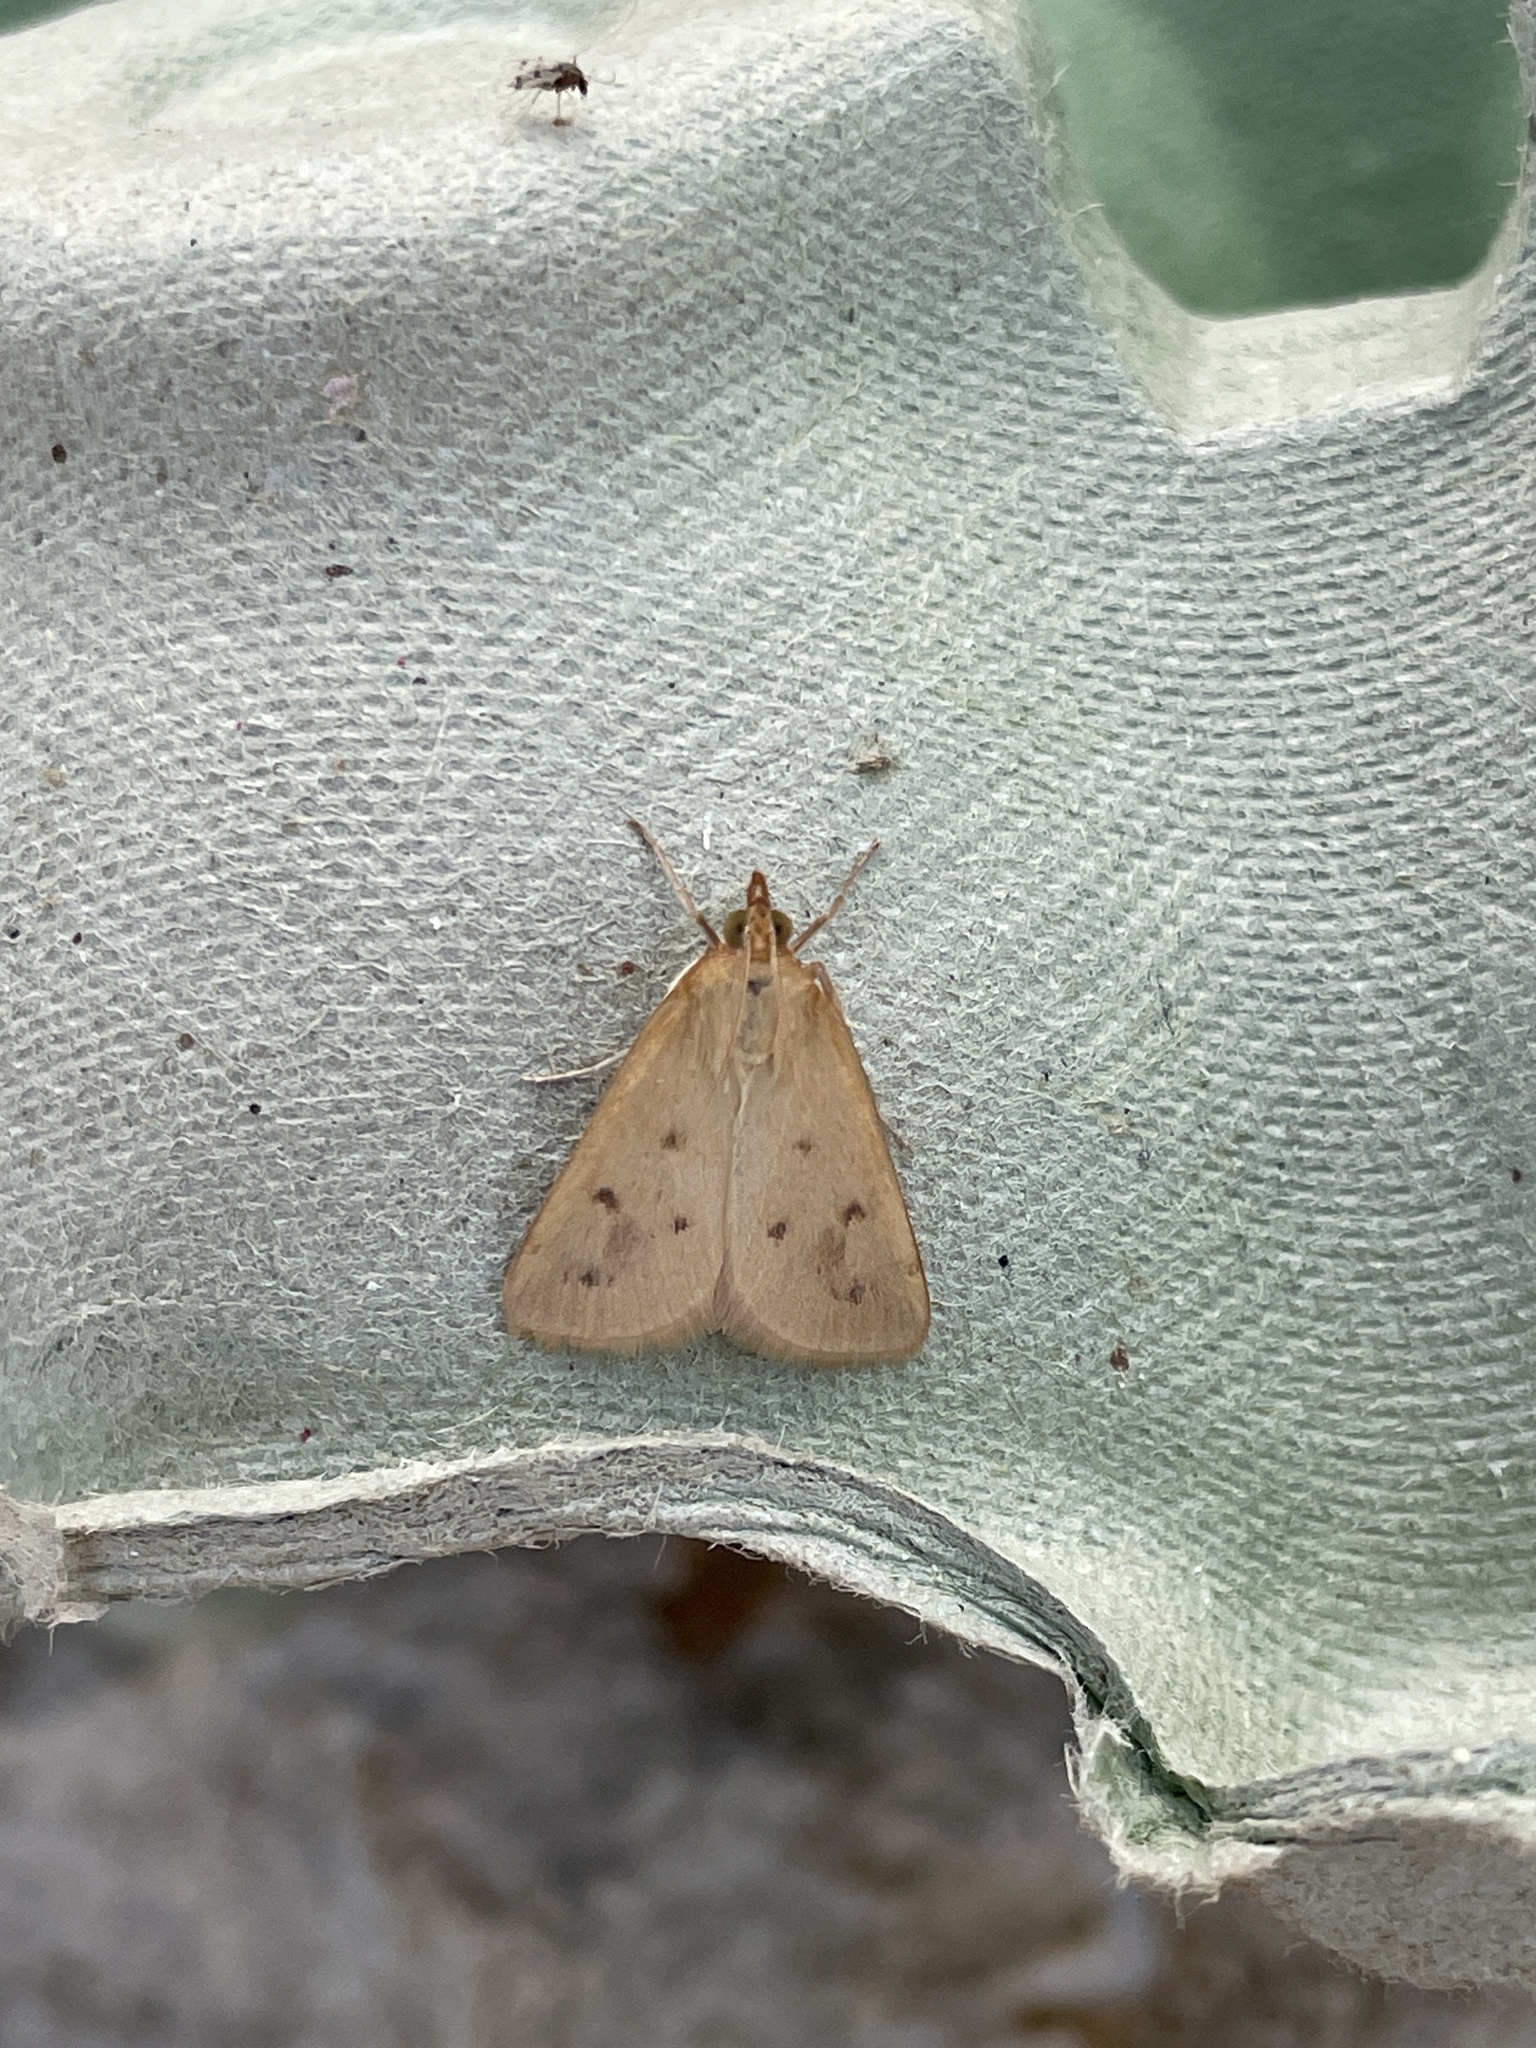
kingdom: Animalia
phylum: Arthropoda
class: Insecta
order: Lepidoptera
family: Crambidae
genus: Achyra
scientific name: Achyra nudalis
